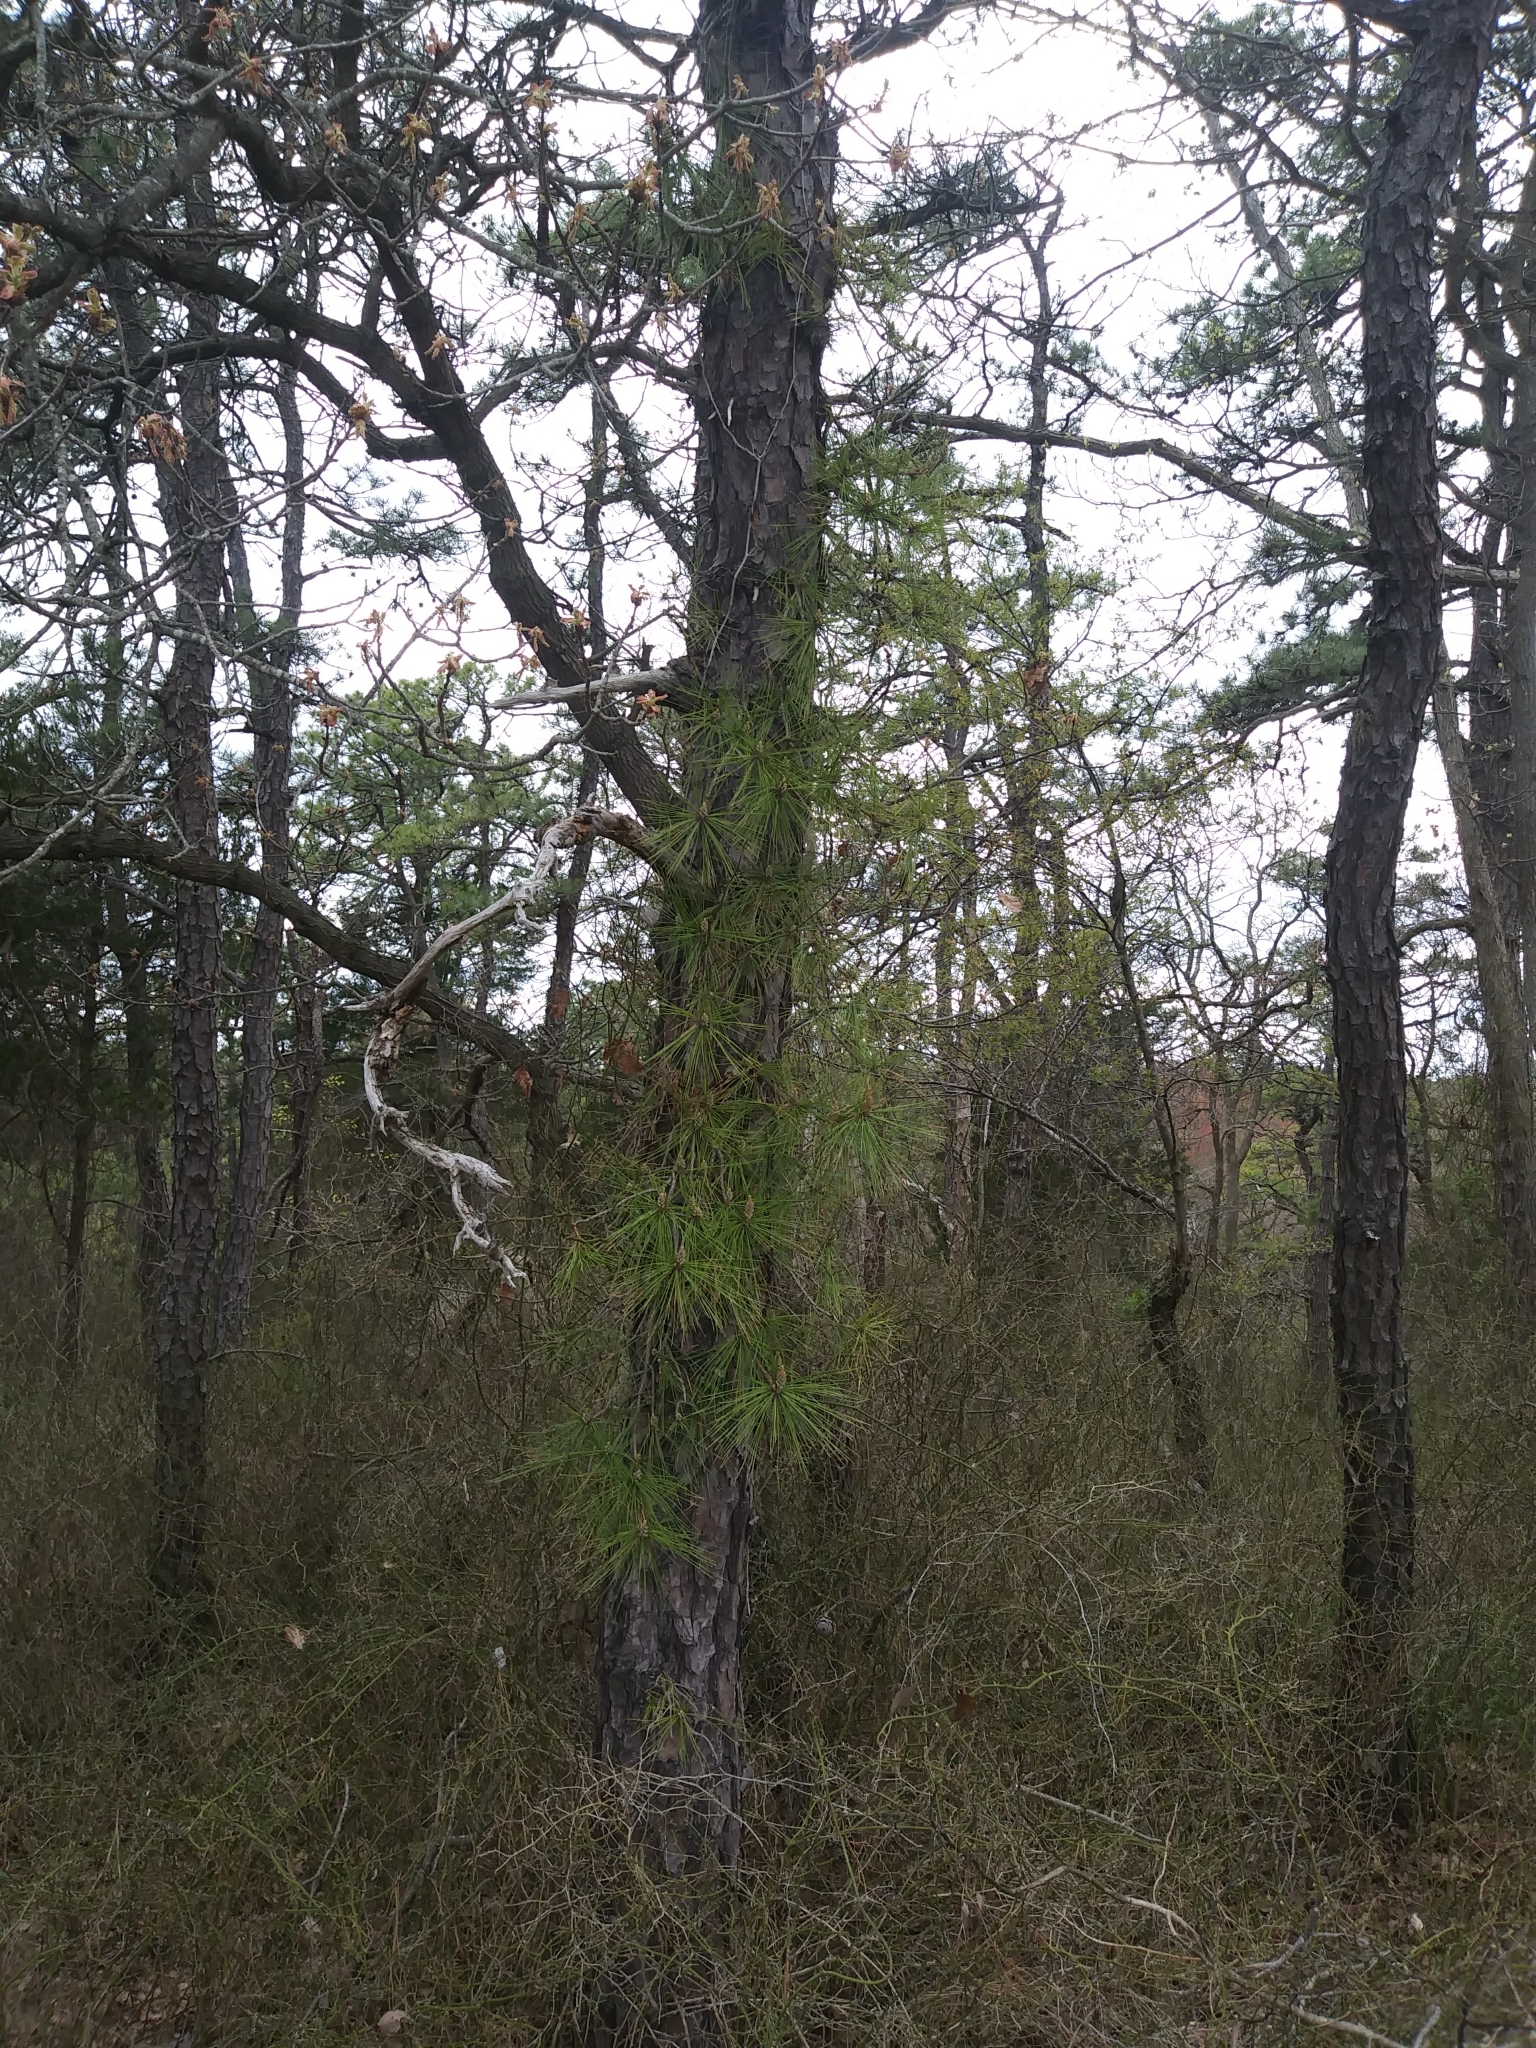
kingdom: Plantae
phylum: Tracheophyta
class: Pinopsida
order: Pinales
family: Pinaceae
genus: Pinus
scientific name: Pinus rigida
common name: Pitch pine
